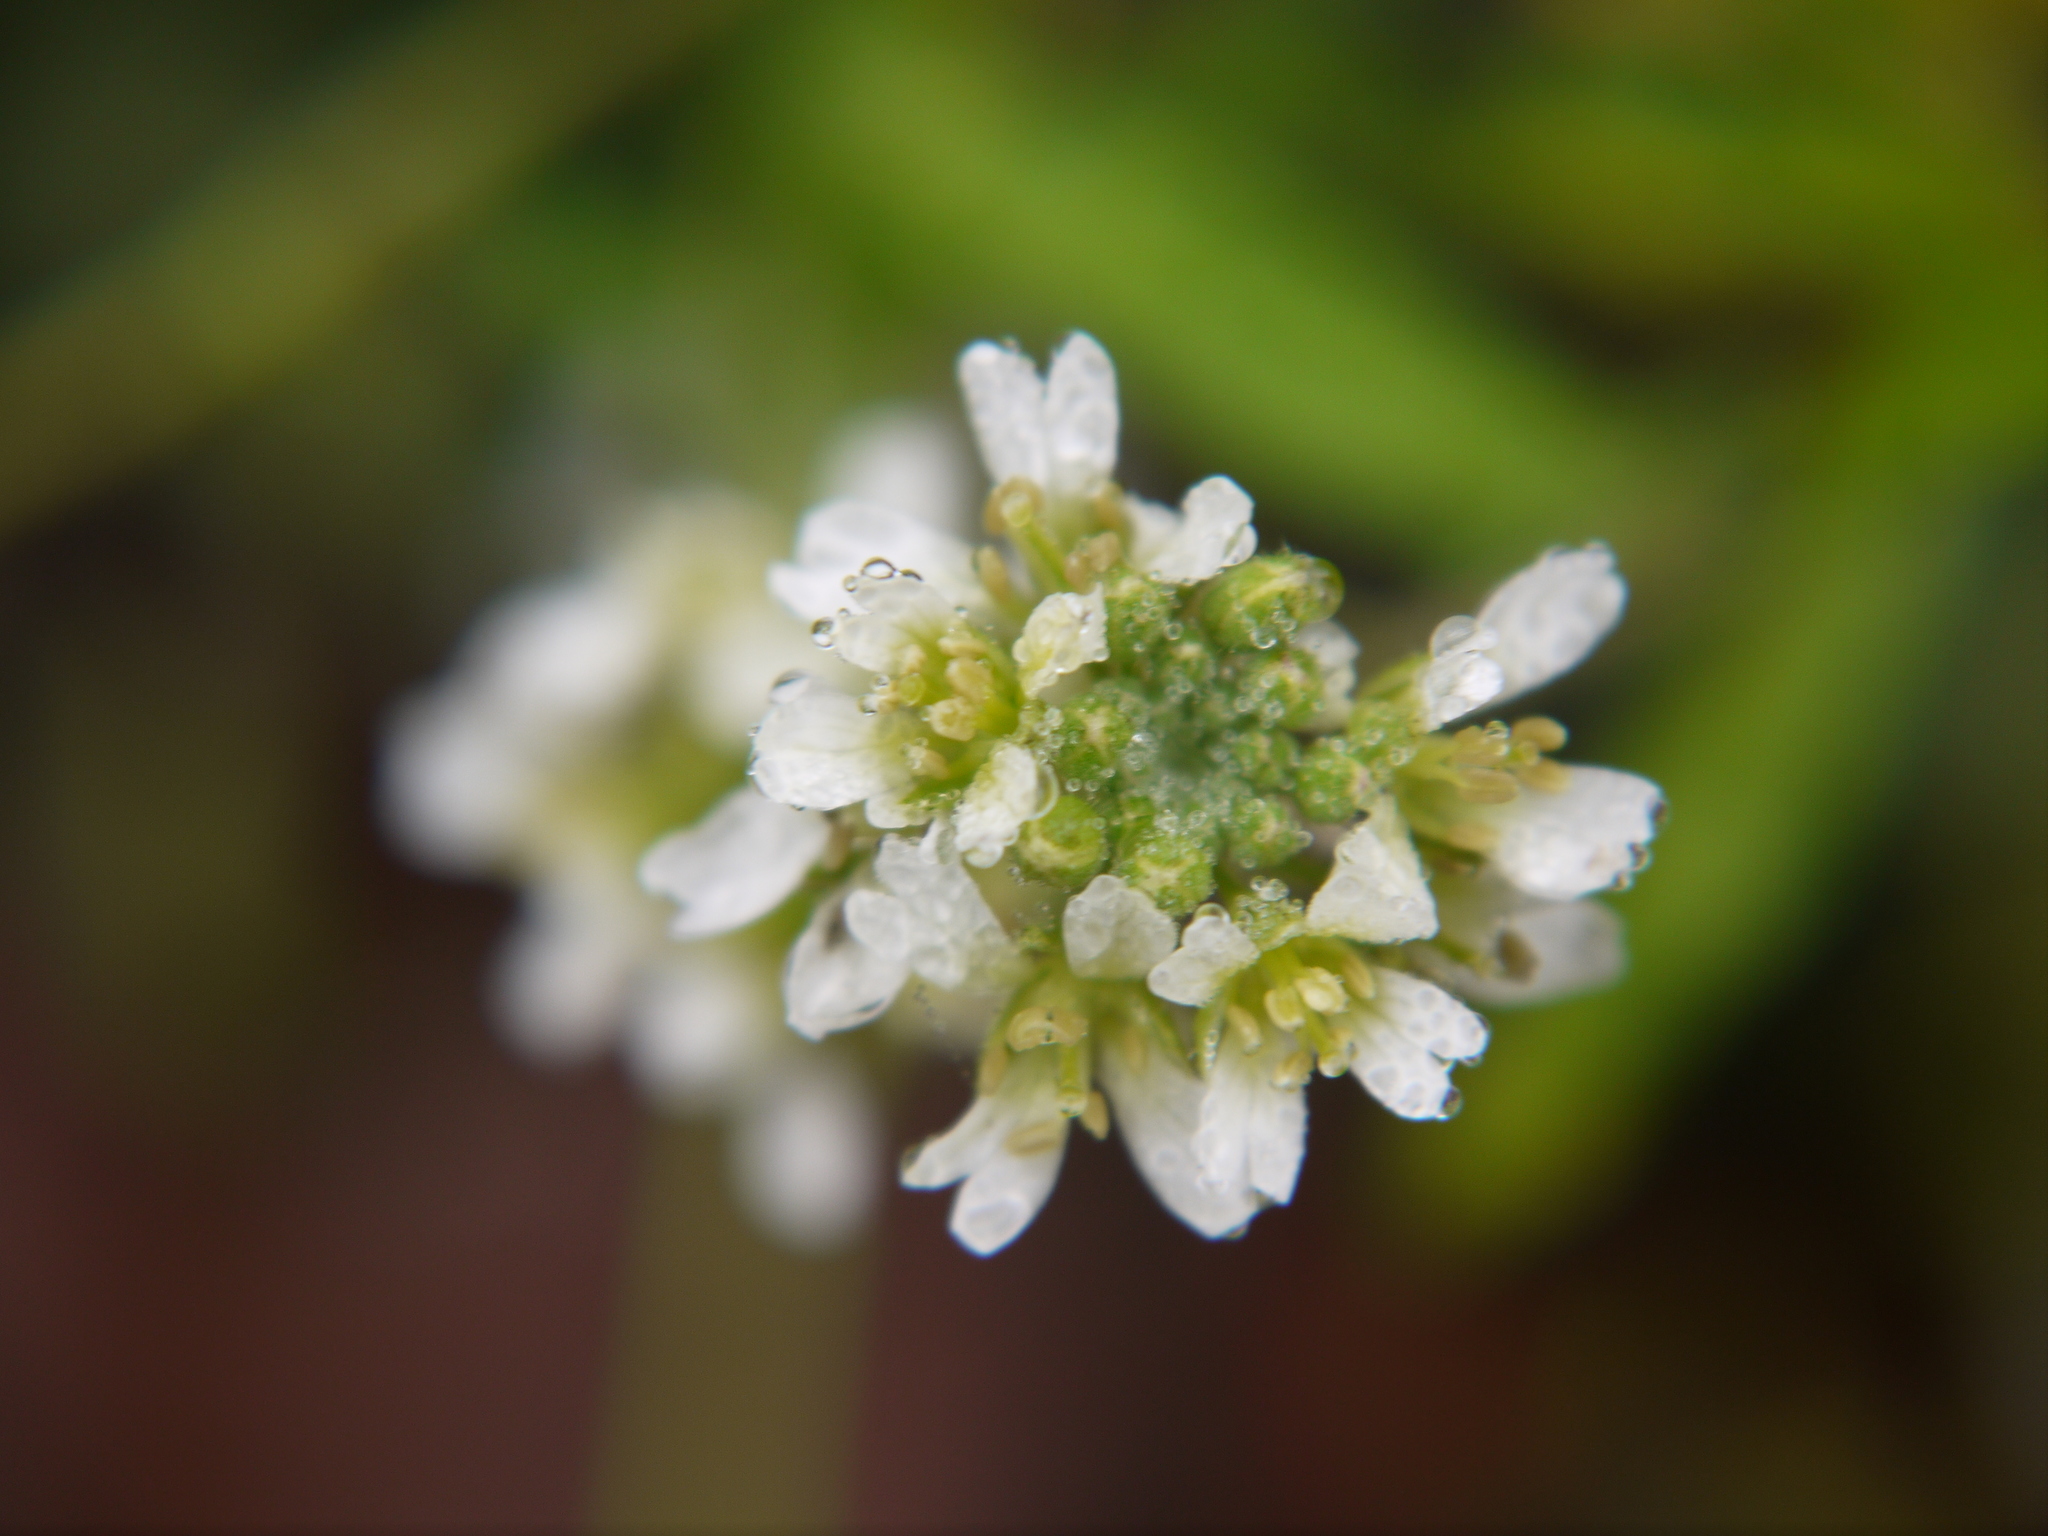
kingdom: Plantae
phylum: Tracheophyta
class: Magnoliopsida
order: Brassicales
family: Brassicaceae
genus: Berteroa
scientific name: Berteroa incana
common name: Hoary alison
